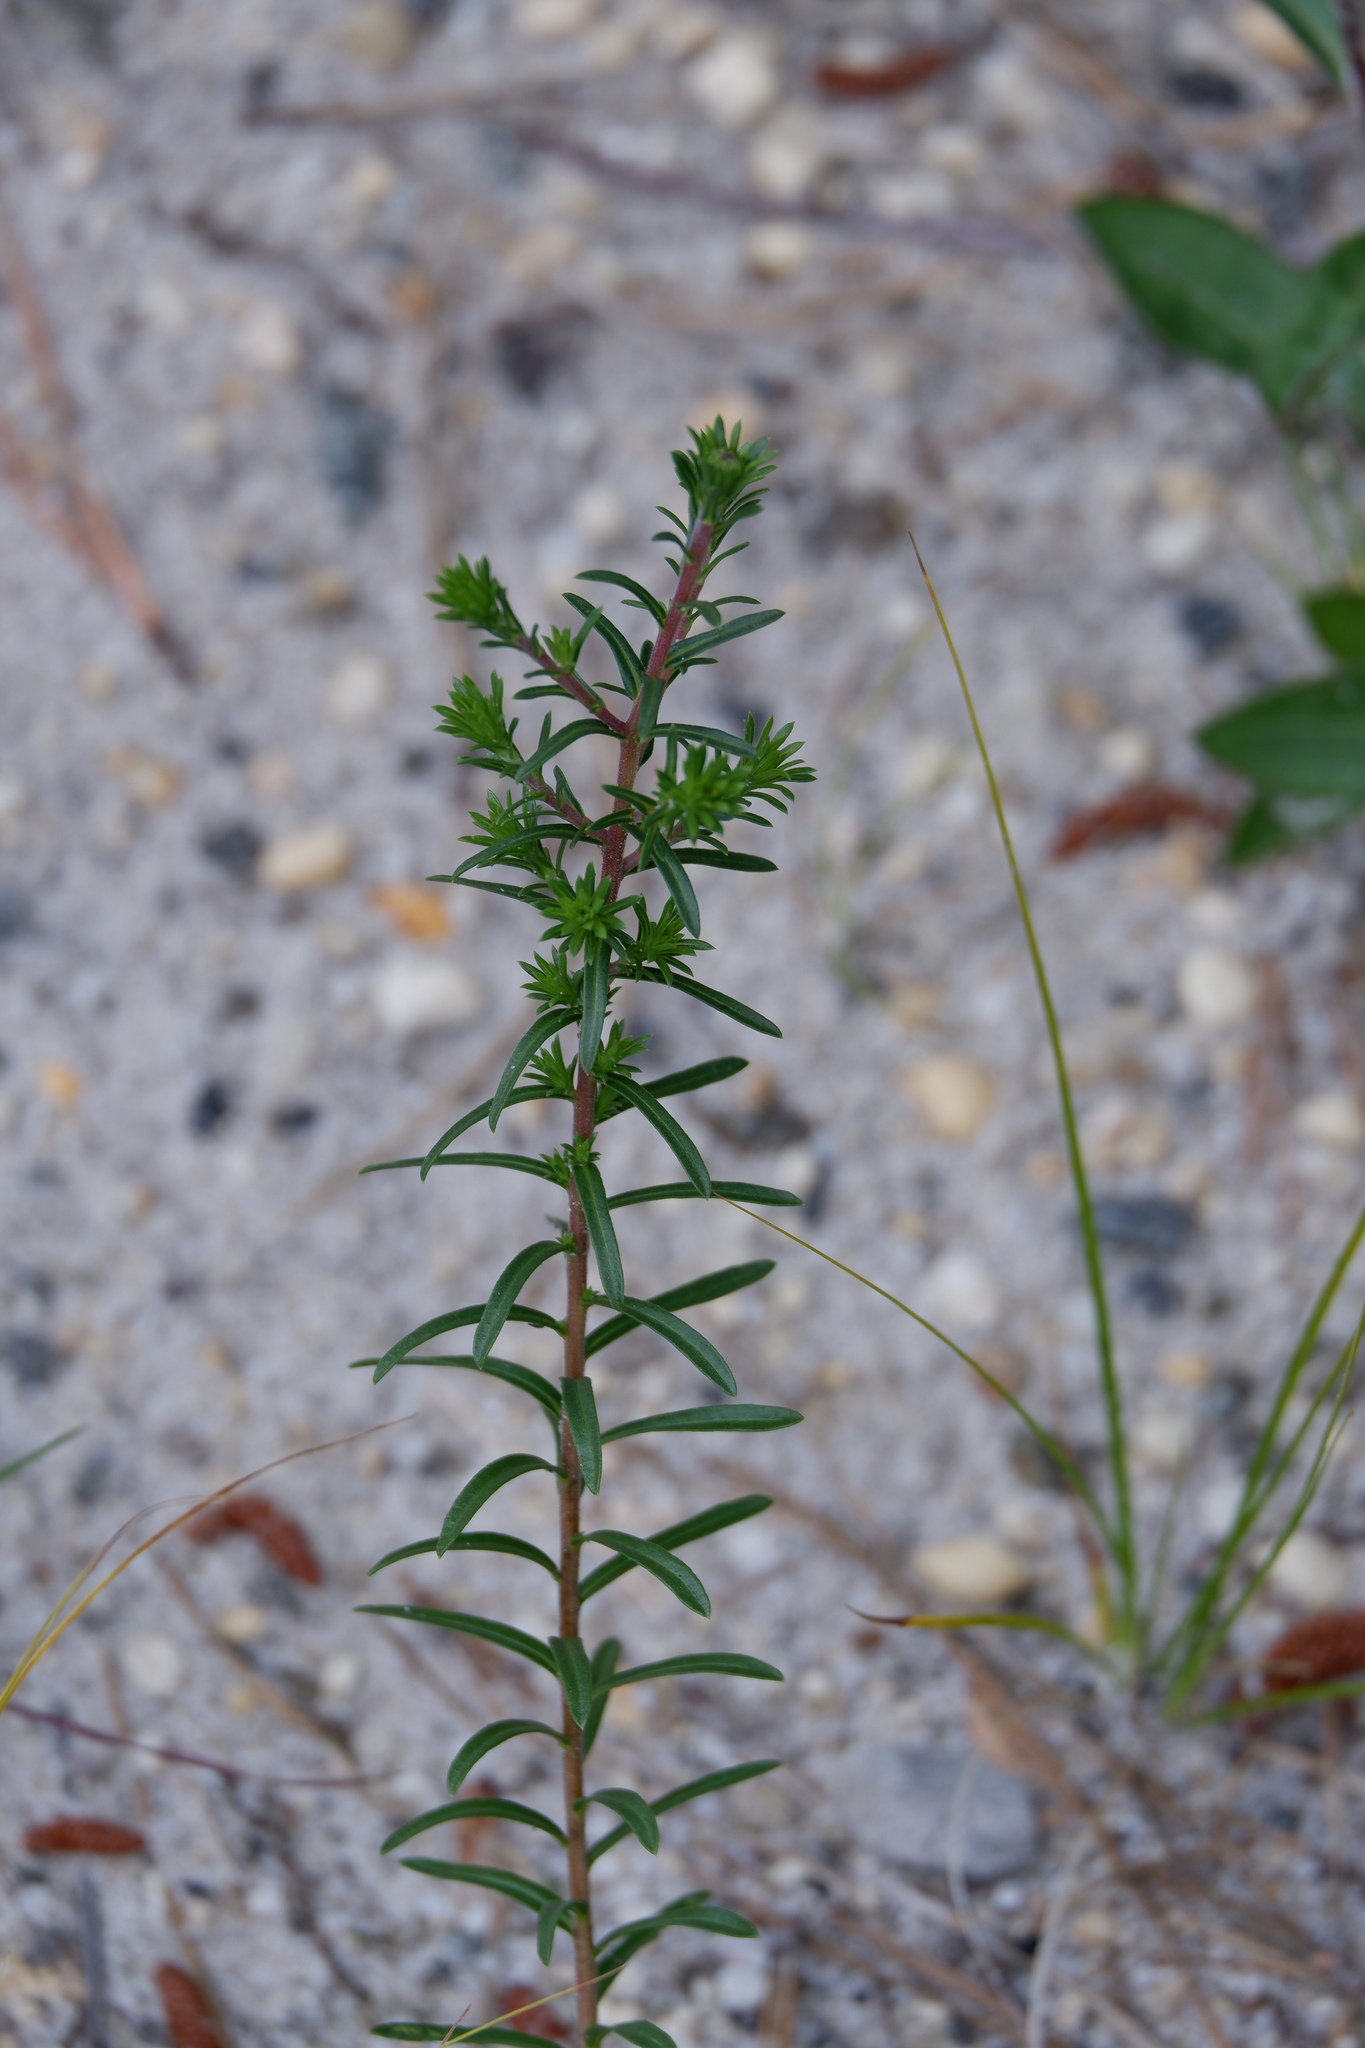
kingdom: Plantae
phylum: Tracheophyta
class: Magnoliopsida
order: Asterales
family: Asteraceae
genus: Ionactis
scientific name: Ionactis linariifolia
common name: Flax-leaf aster
